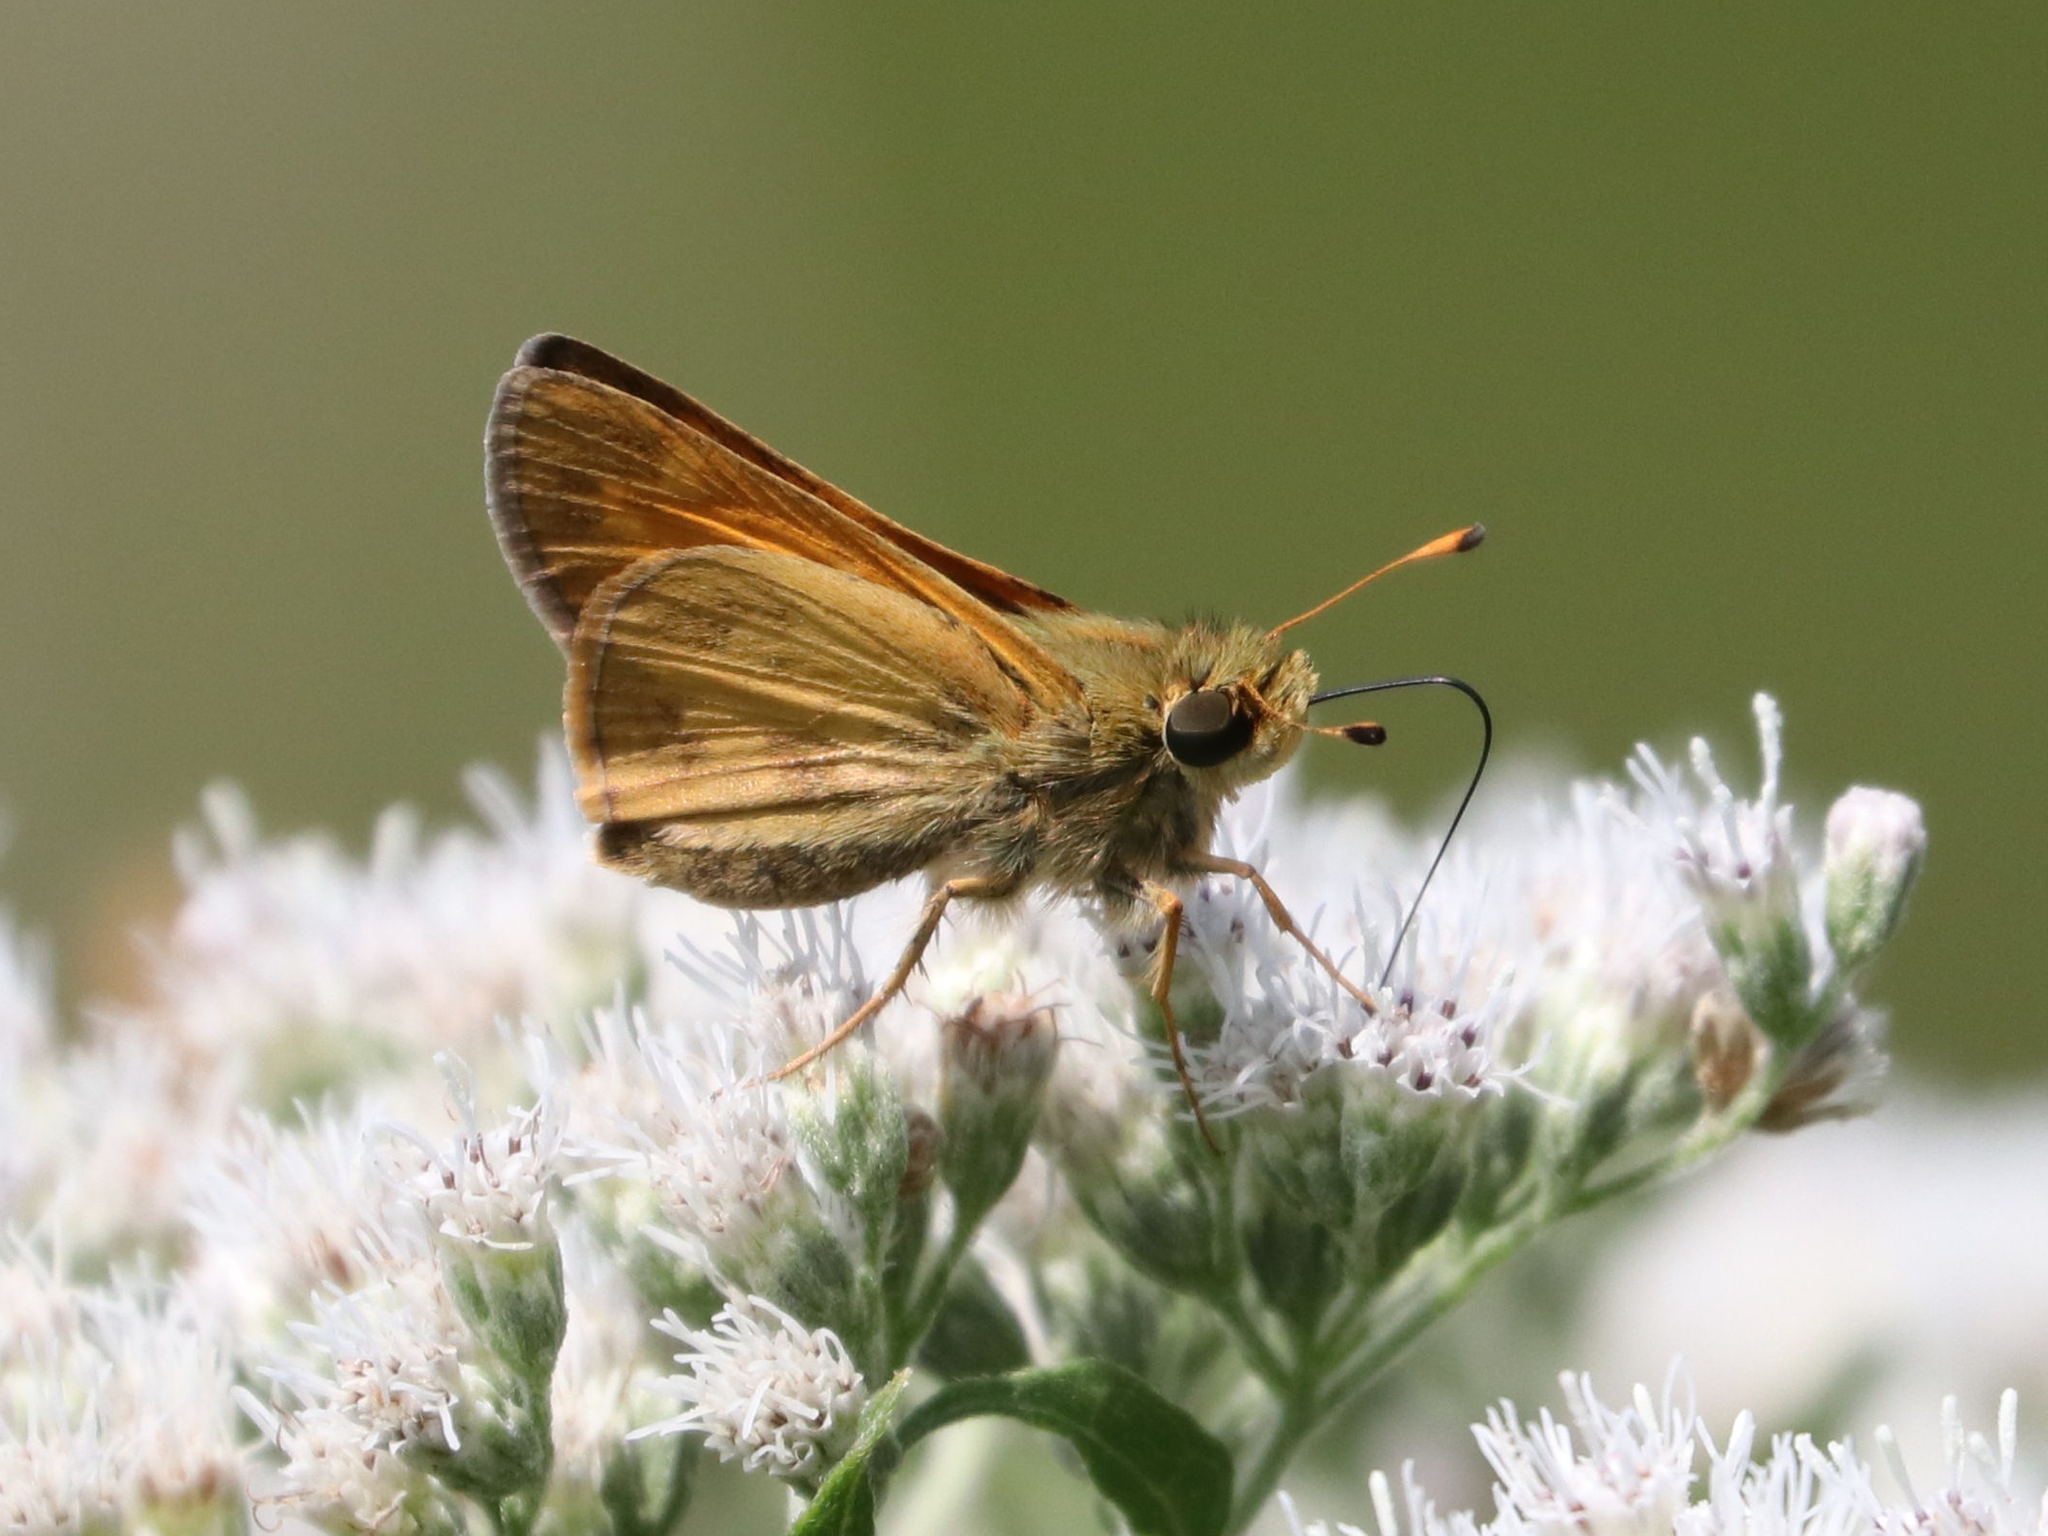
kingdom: Animalia
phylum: Arthropoda
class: Insecta
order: Lepidoptera
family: Hesperiidae
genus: Atalopedes
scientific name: Atalopedes
